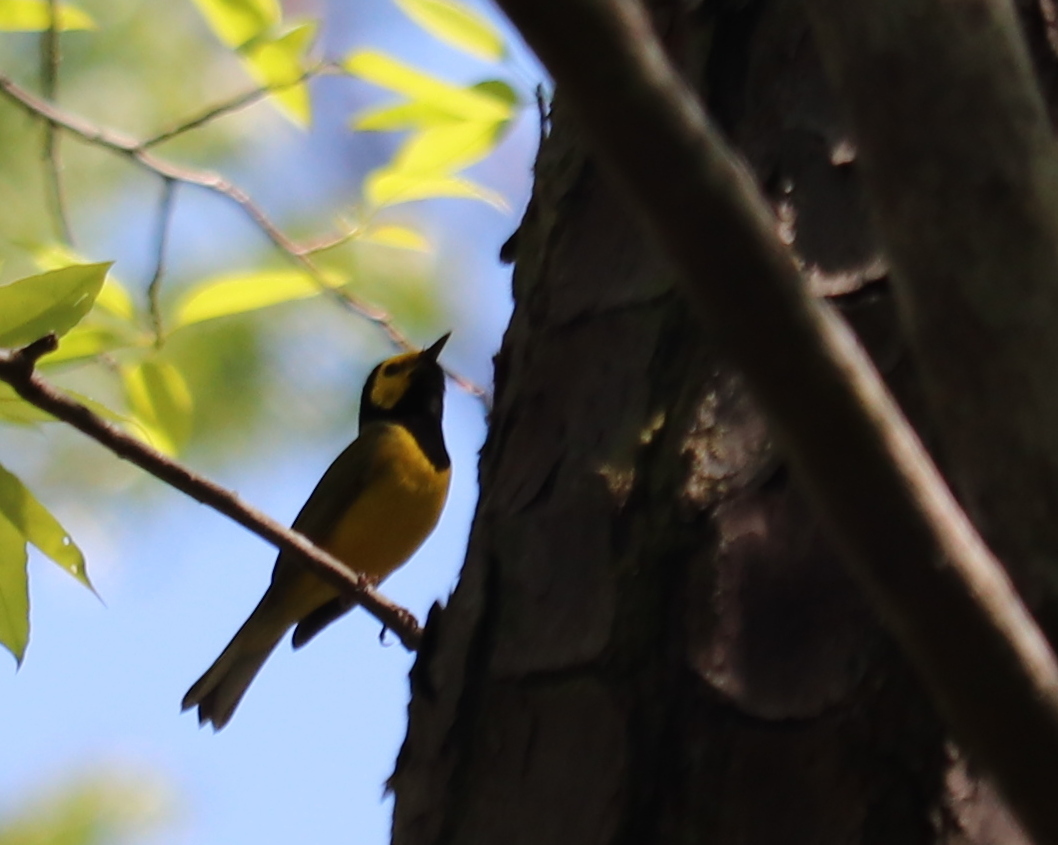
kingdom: Animalia
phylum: Chordata
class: Aves
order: Passeriformes
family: Parulidae
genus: Setophaga
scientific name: Setophaga citrina
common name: Hooded warbler
